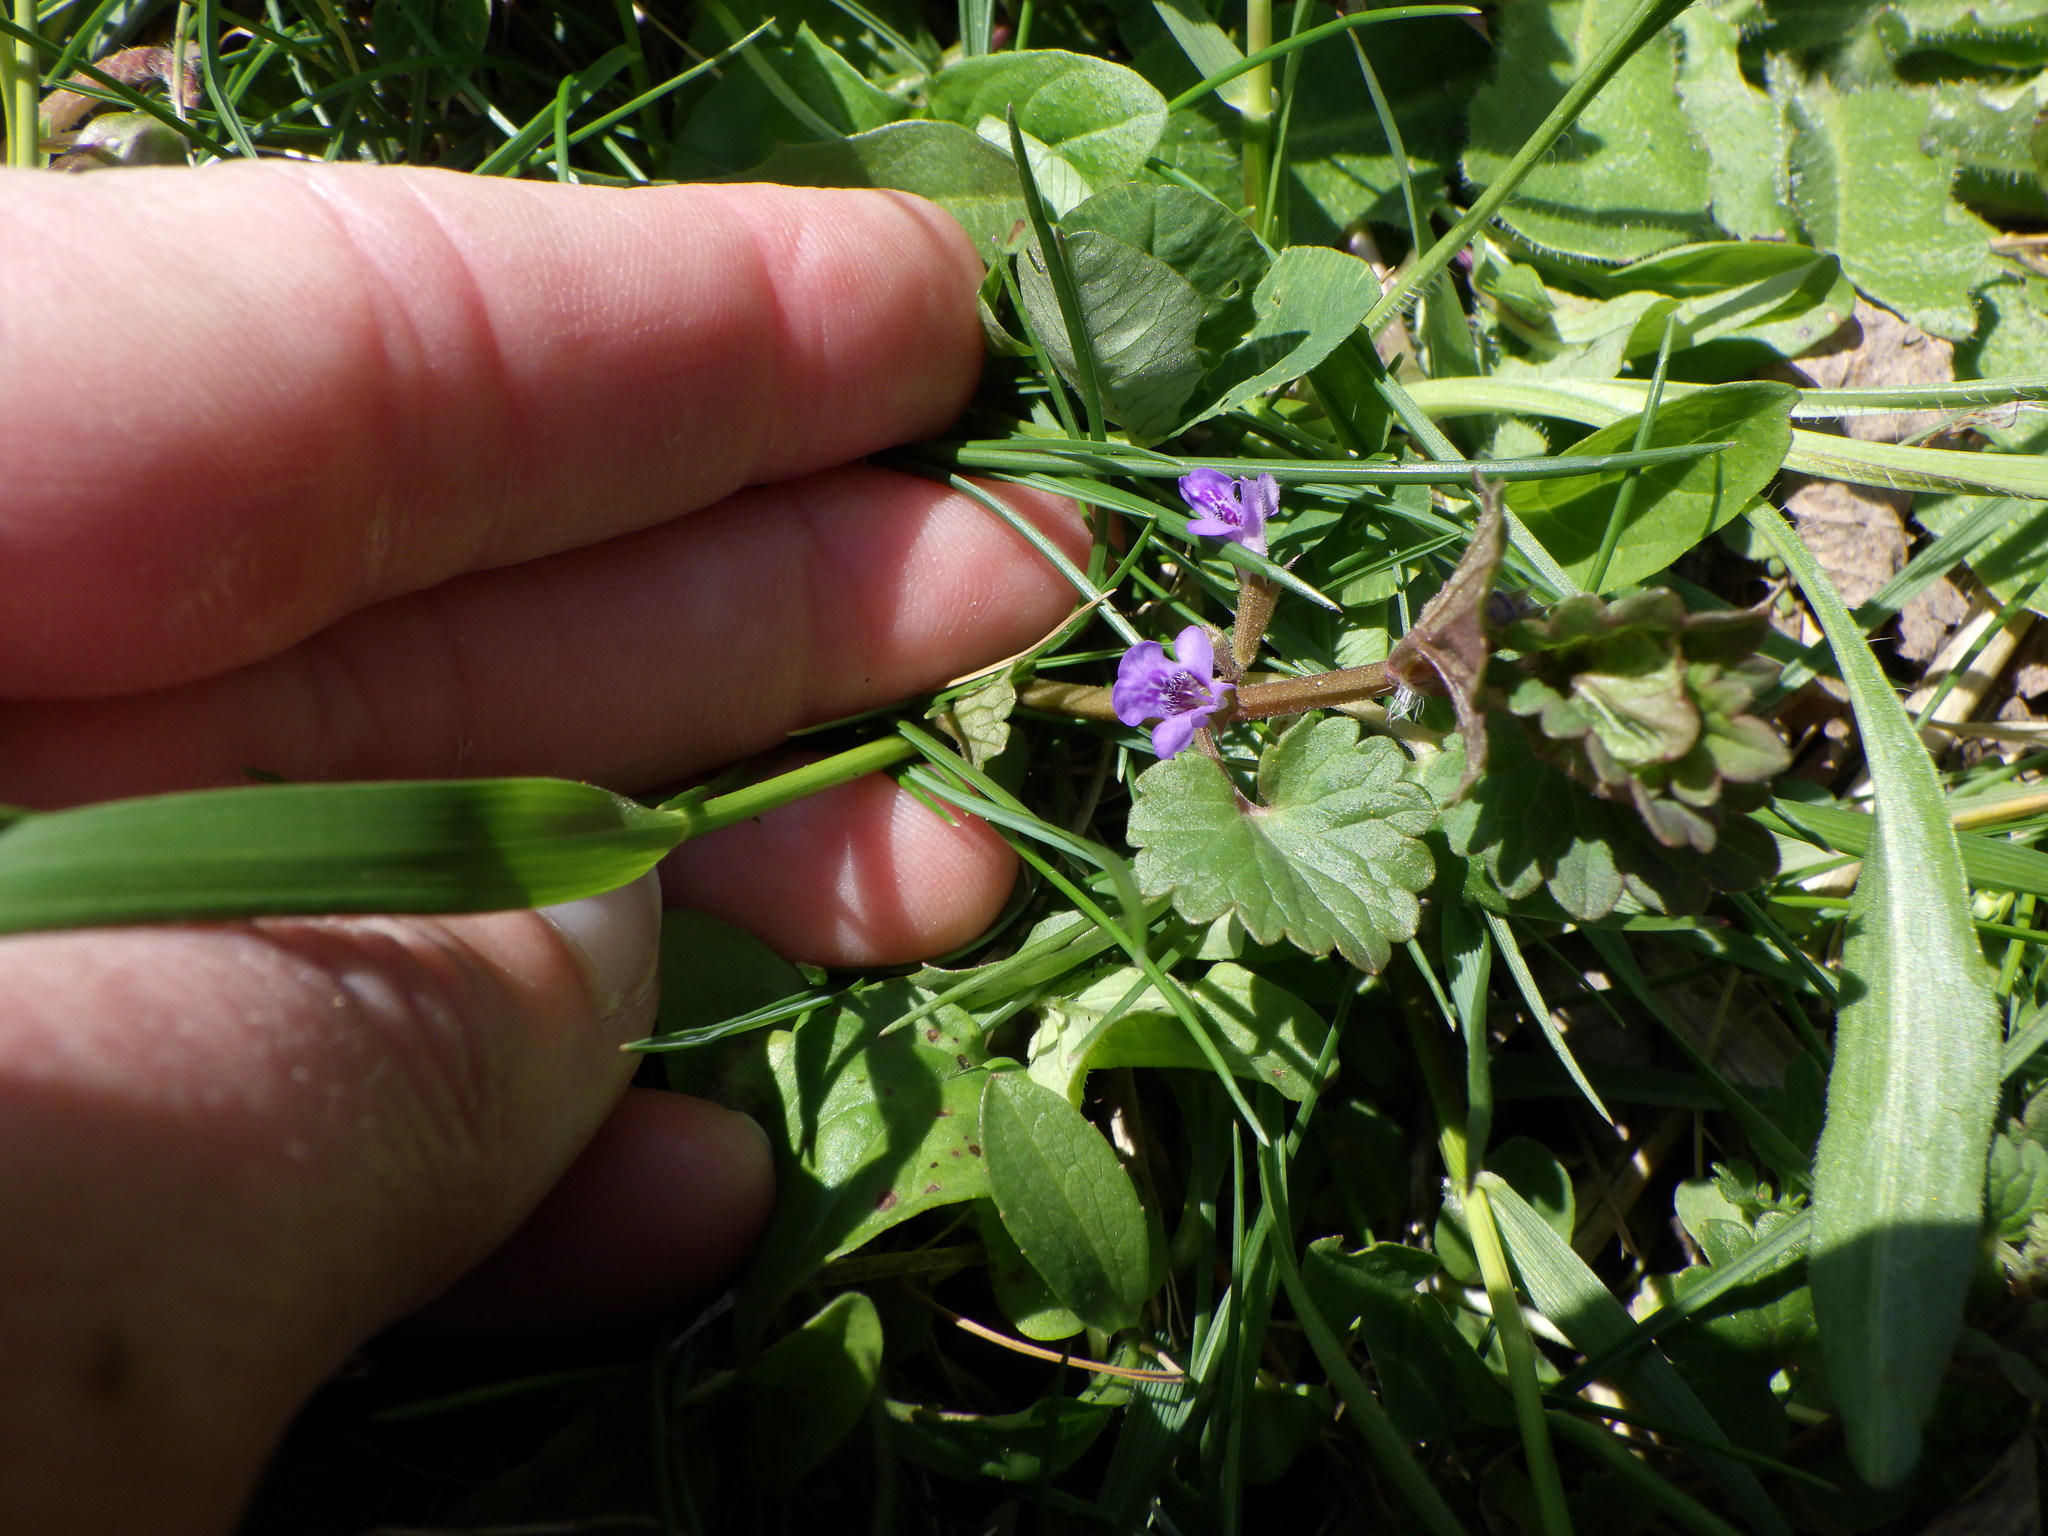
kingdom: Plantae
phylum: Tracheophyta
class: Magnoliopsida
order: Lamiales
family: Lamiaceae
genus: Glechoma
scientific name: Glechoma hederacea
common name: Ground ivy
